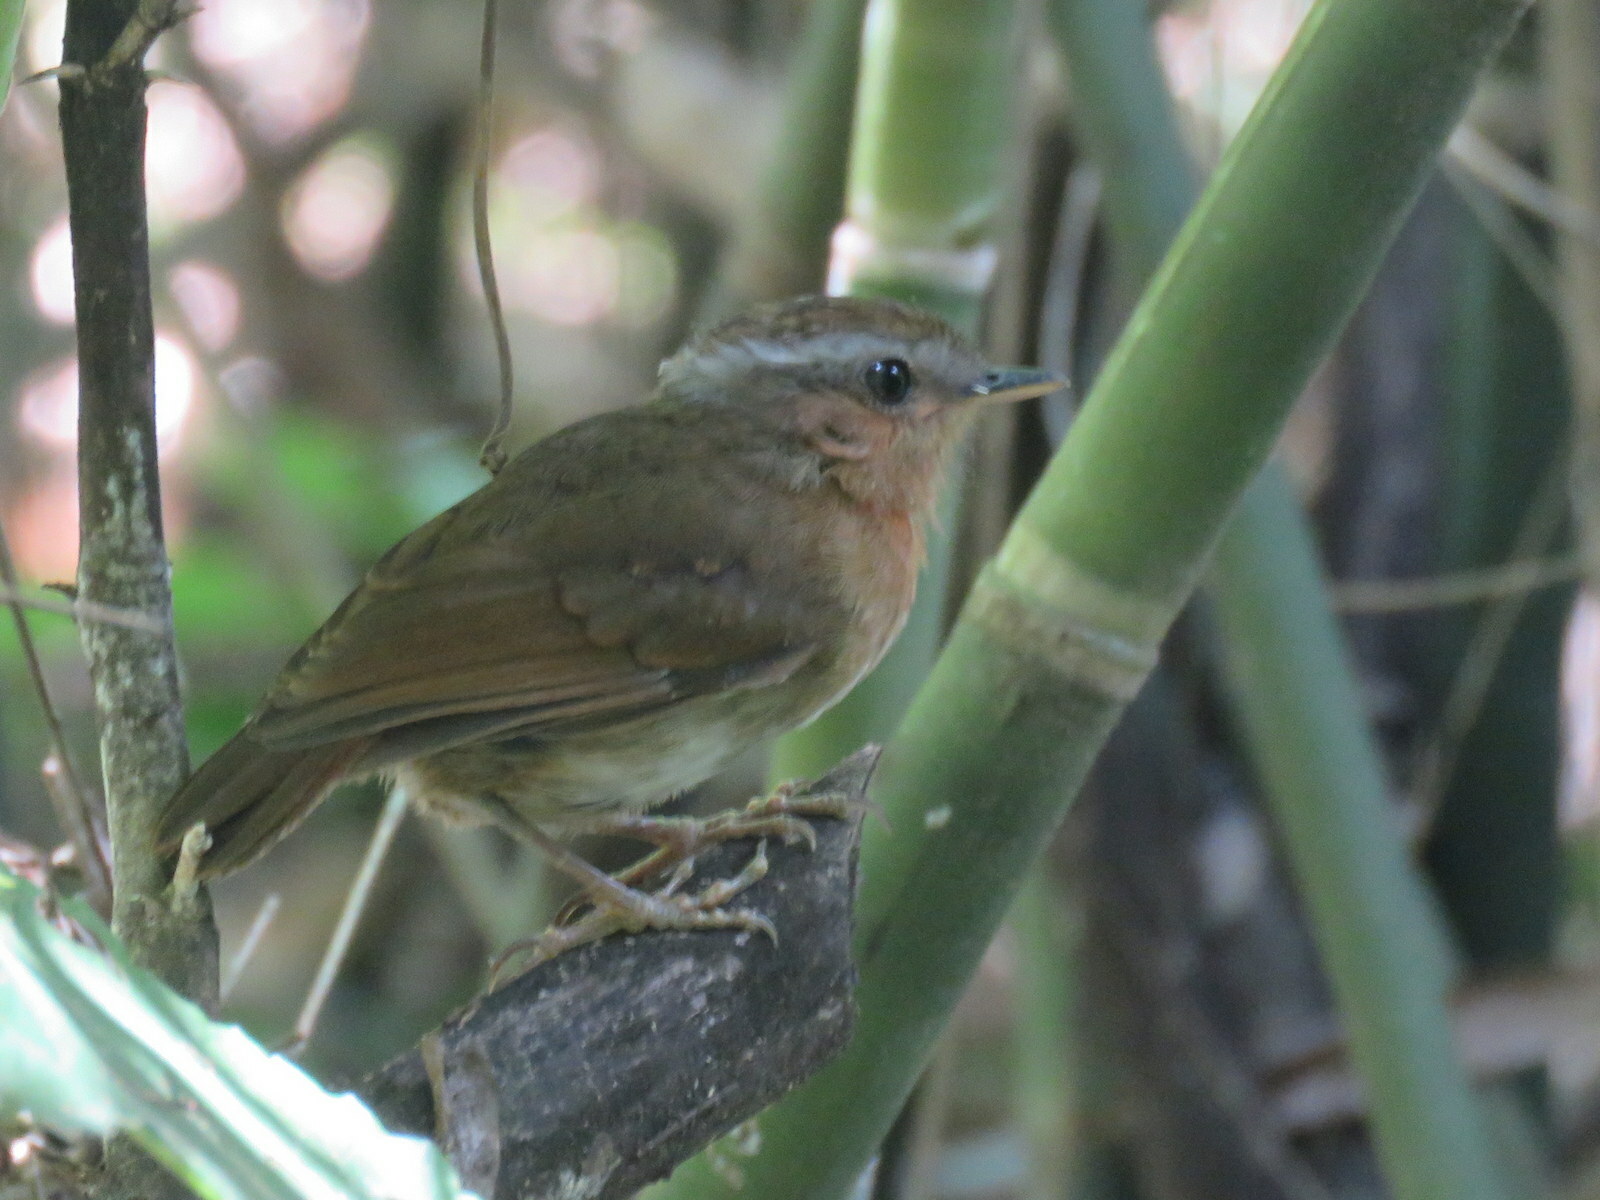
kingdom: Animalia
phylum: Chordata
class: Aves
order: Passeriformes
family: Conopophagidae
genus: Conopophaga
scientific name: Conopophaga lineata
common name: Rufous gnateater
